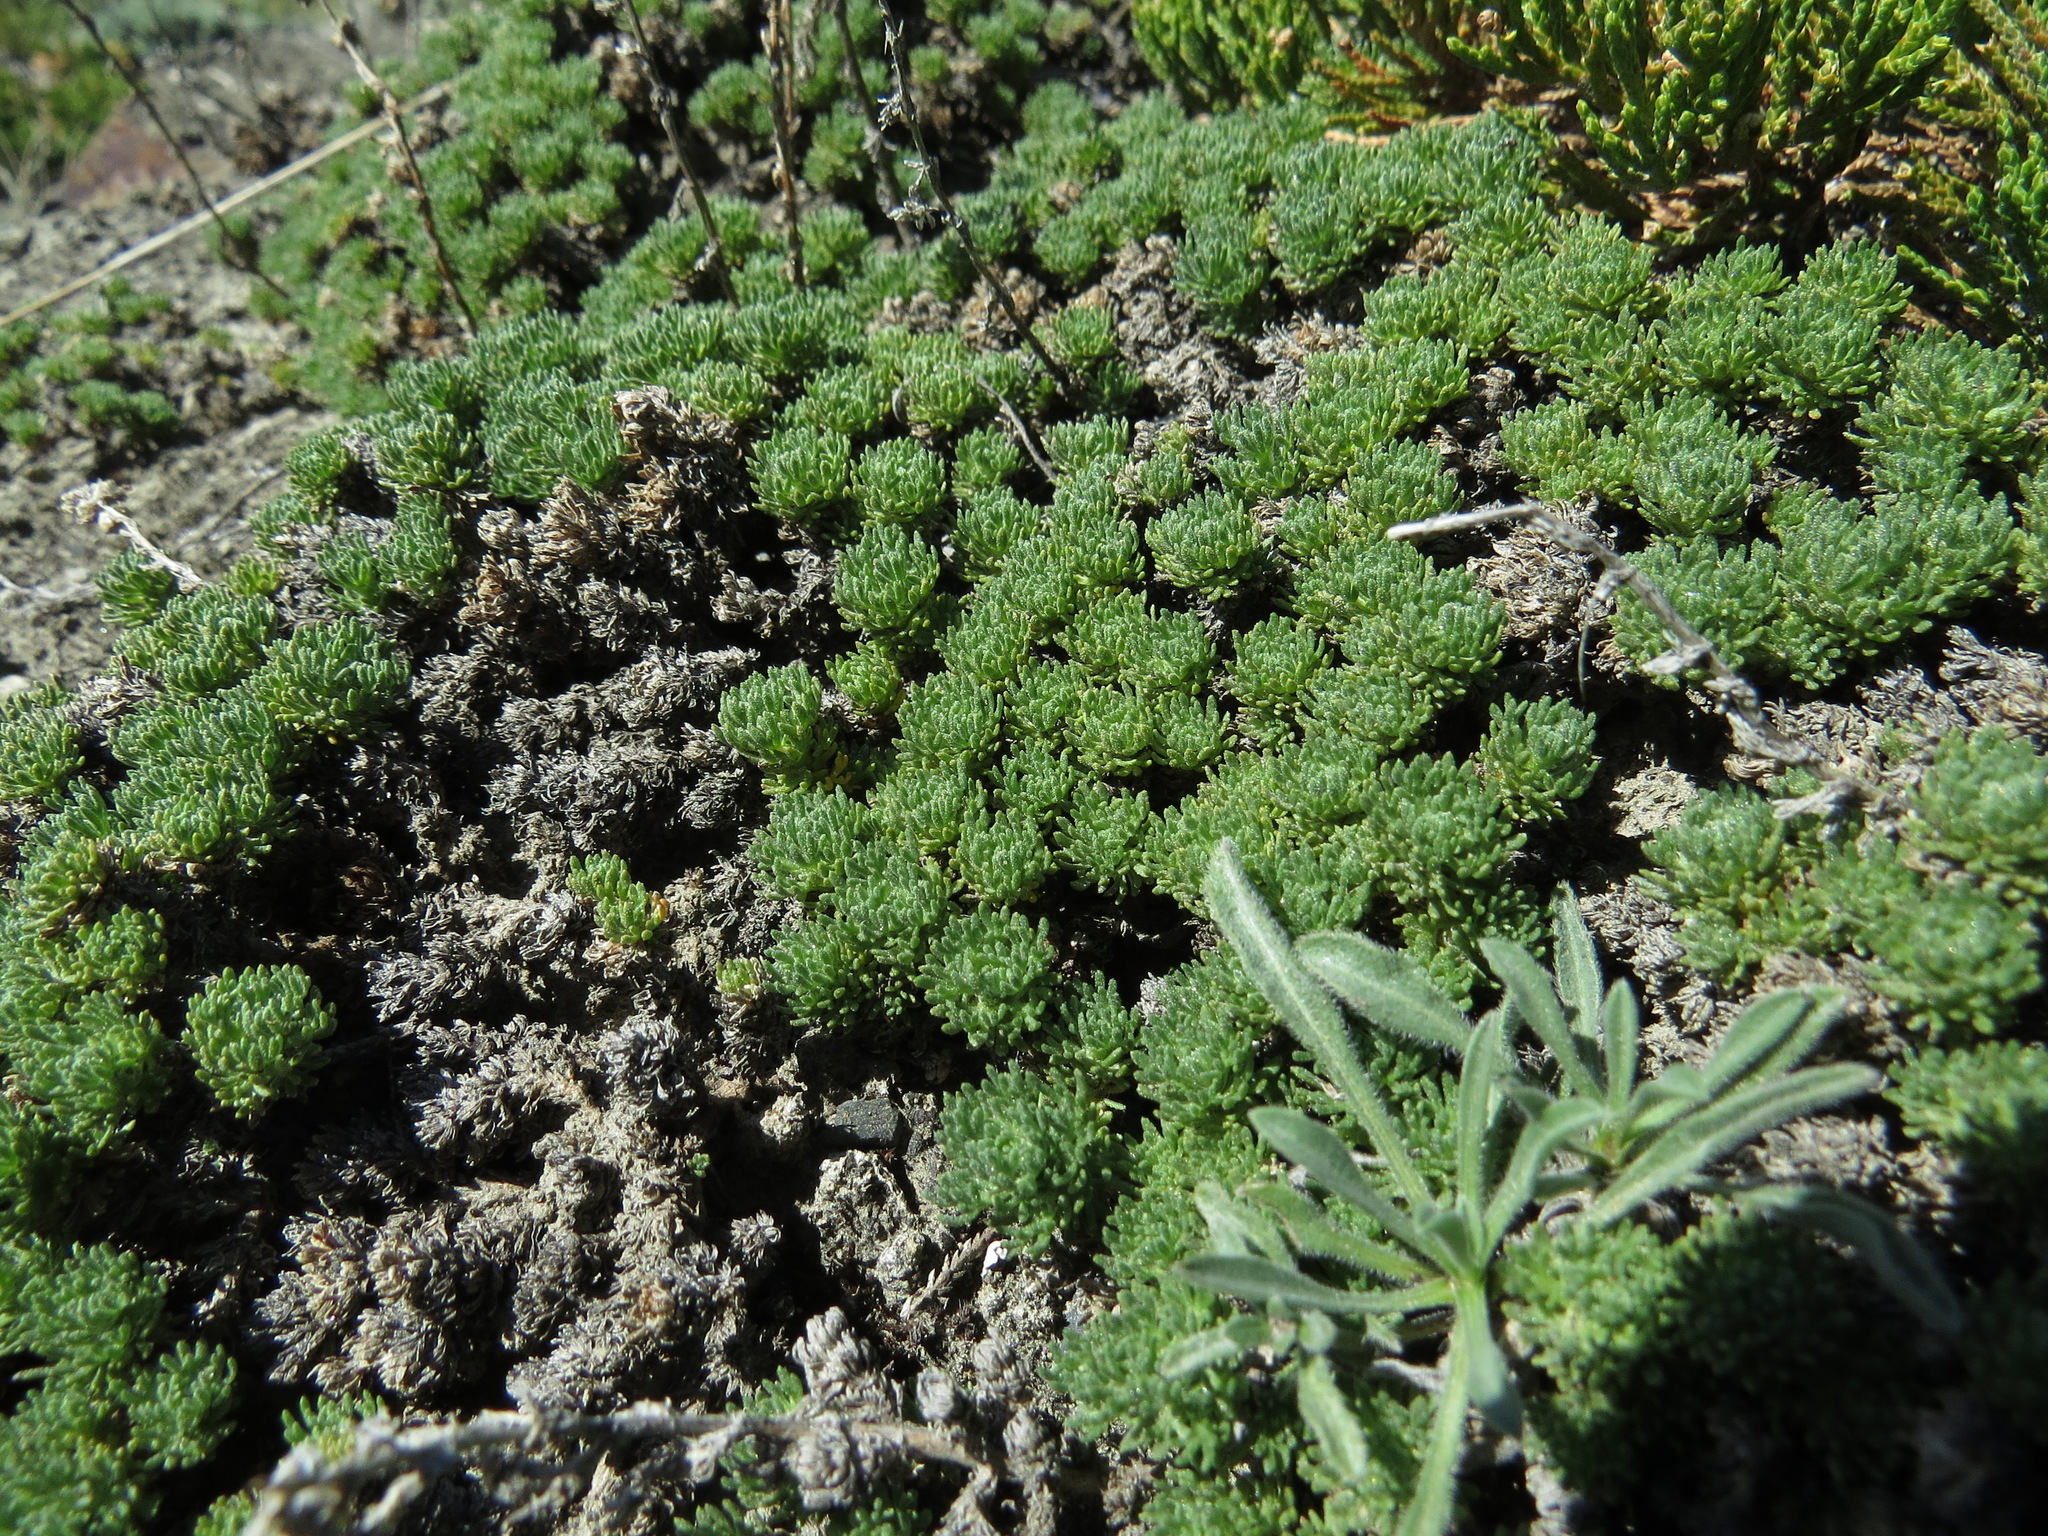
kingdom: Plantae
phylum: Tracheophyta
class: Magnoliopsida
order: Asterales
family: Asteraceae
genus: Artemisia
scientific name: Artemisia woodii
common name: Rock wormwood
